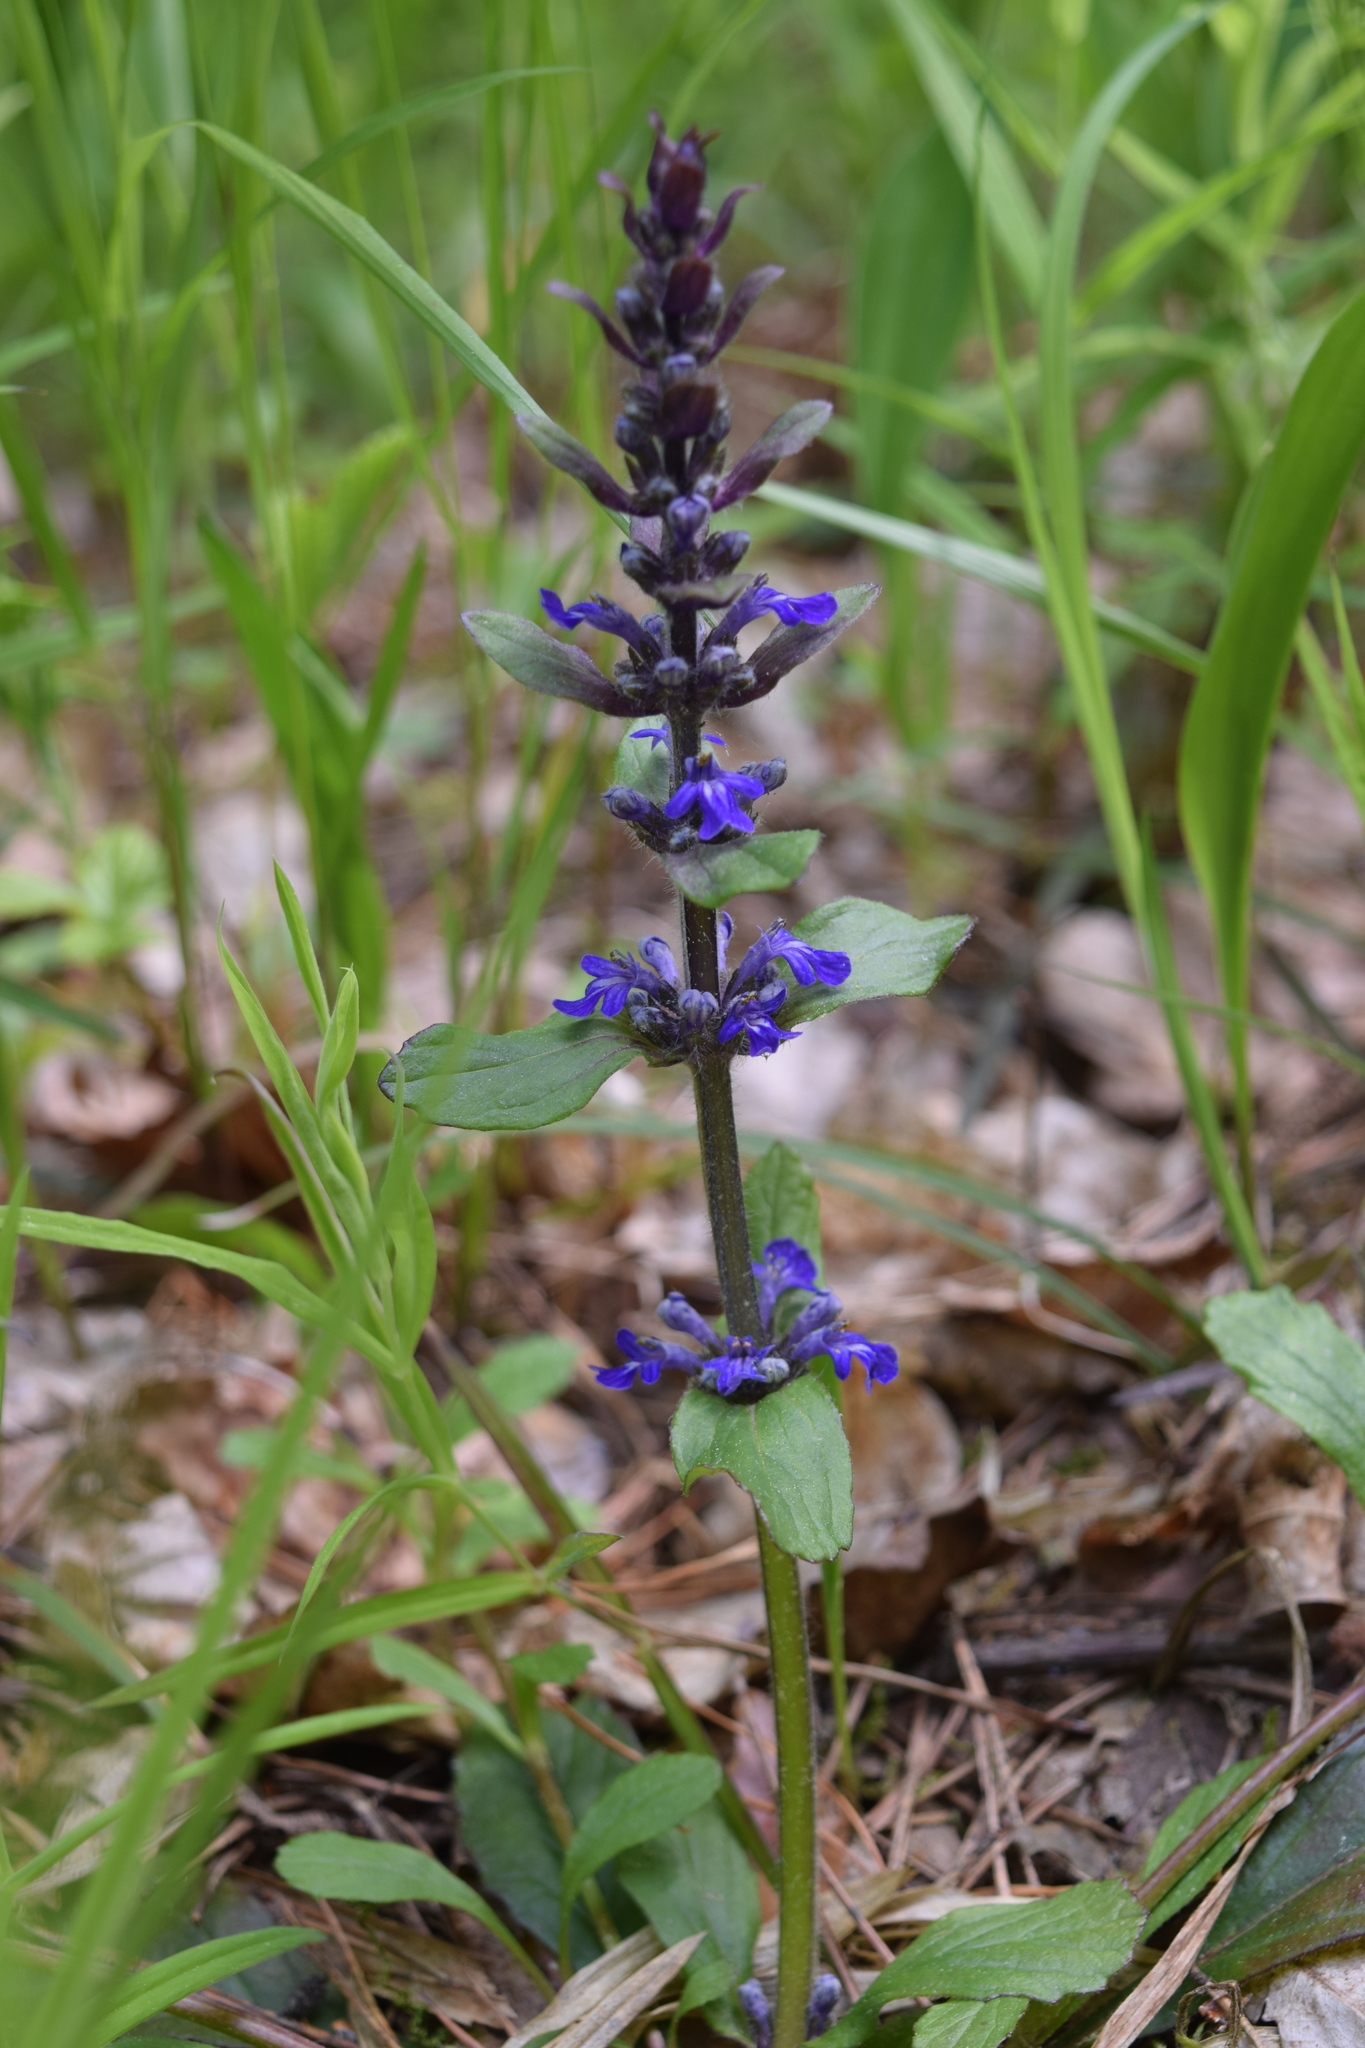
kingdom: Plantae
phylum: Tracheophyta
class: Magnoliopsida
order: Lamiales
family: Lamiaceae
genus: Ajuga
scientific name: Ajuga reptans
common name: Bugle
